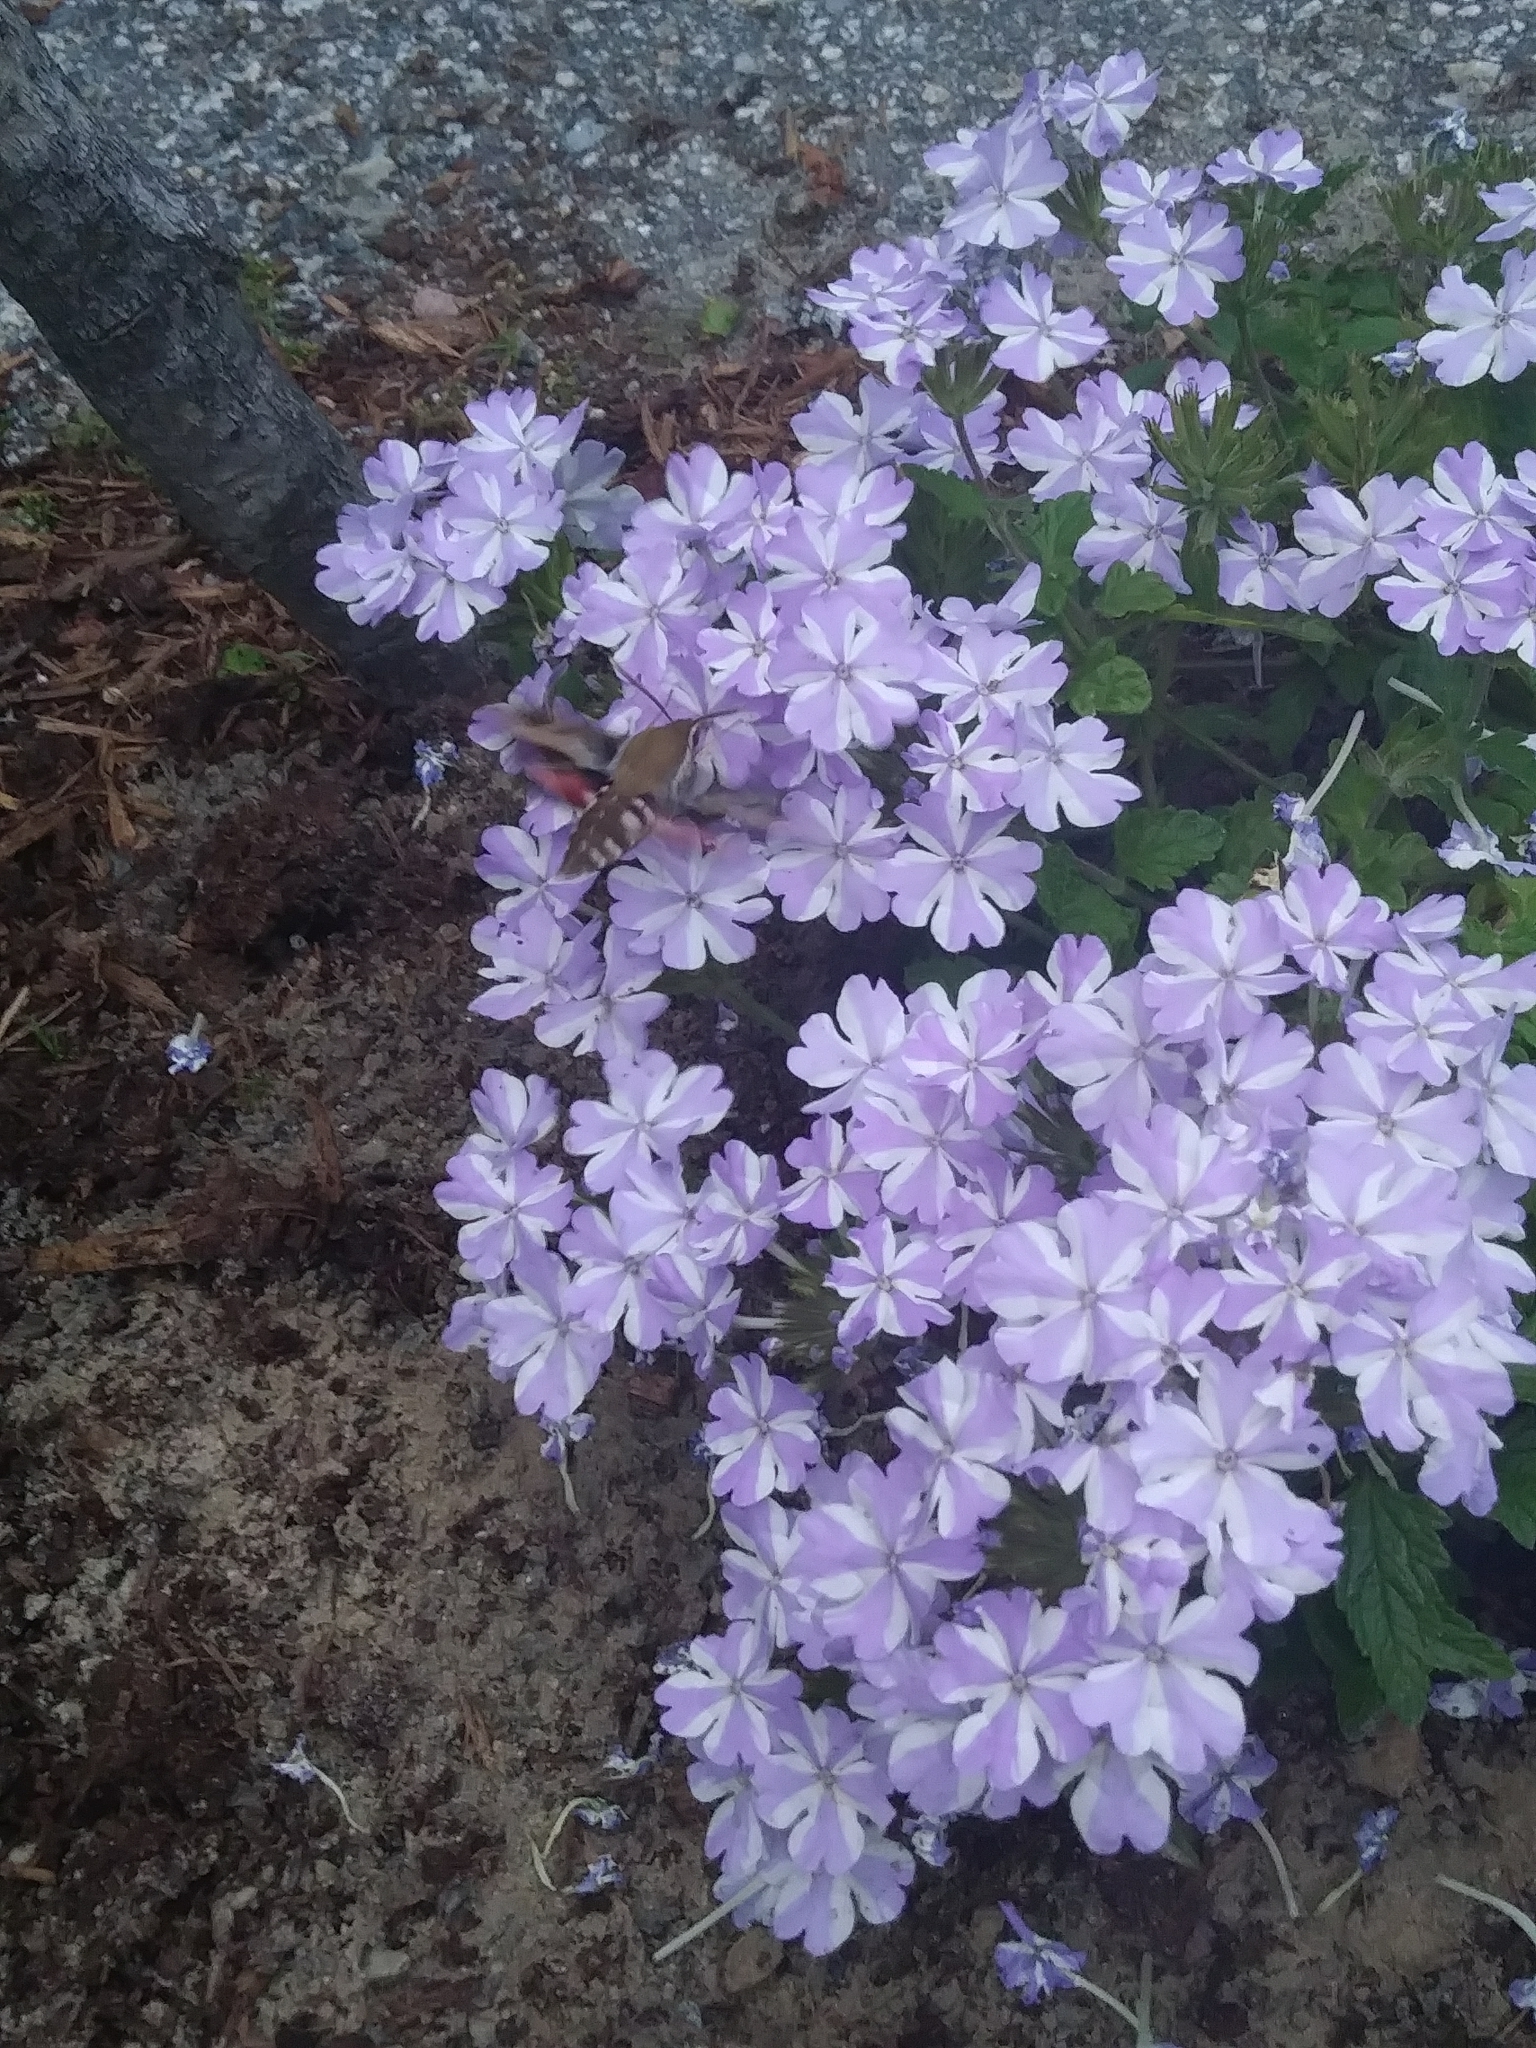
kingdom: Animalia
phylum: Arthropoda
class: Insecta
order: Lepidoptera
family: Sphingidae
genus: Hyles
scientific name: Hyles gallii
